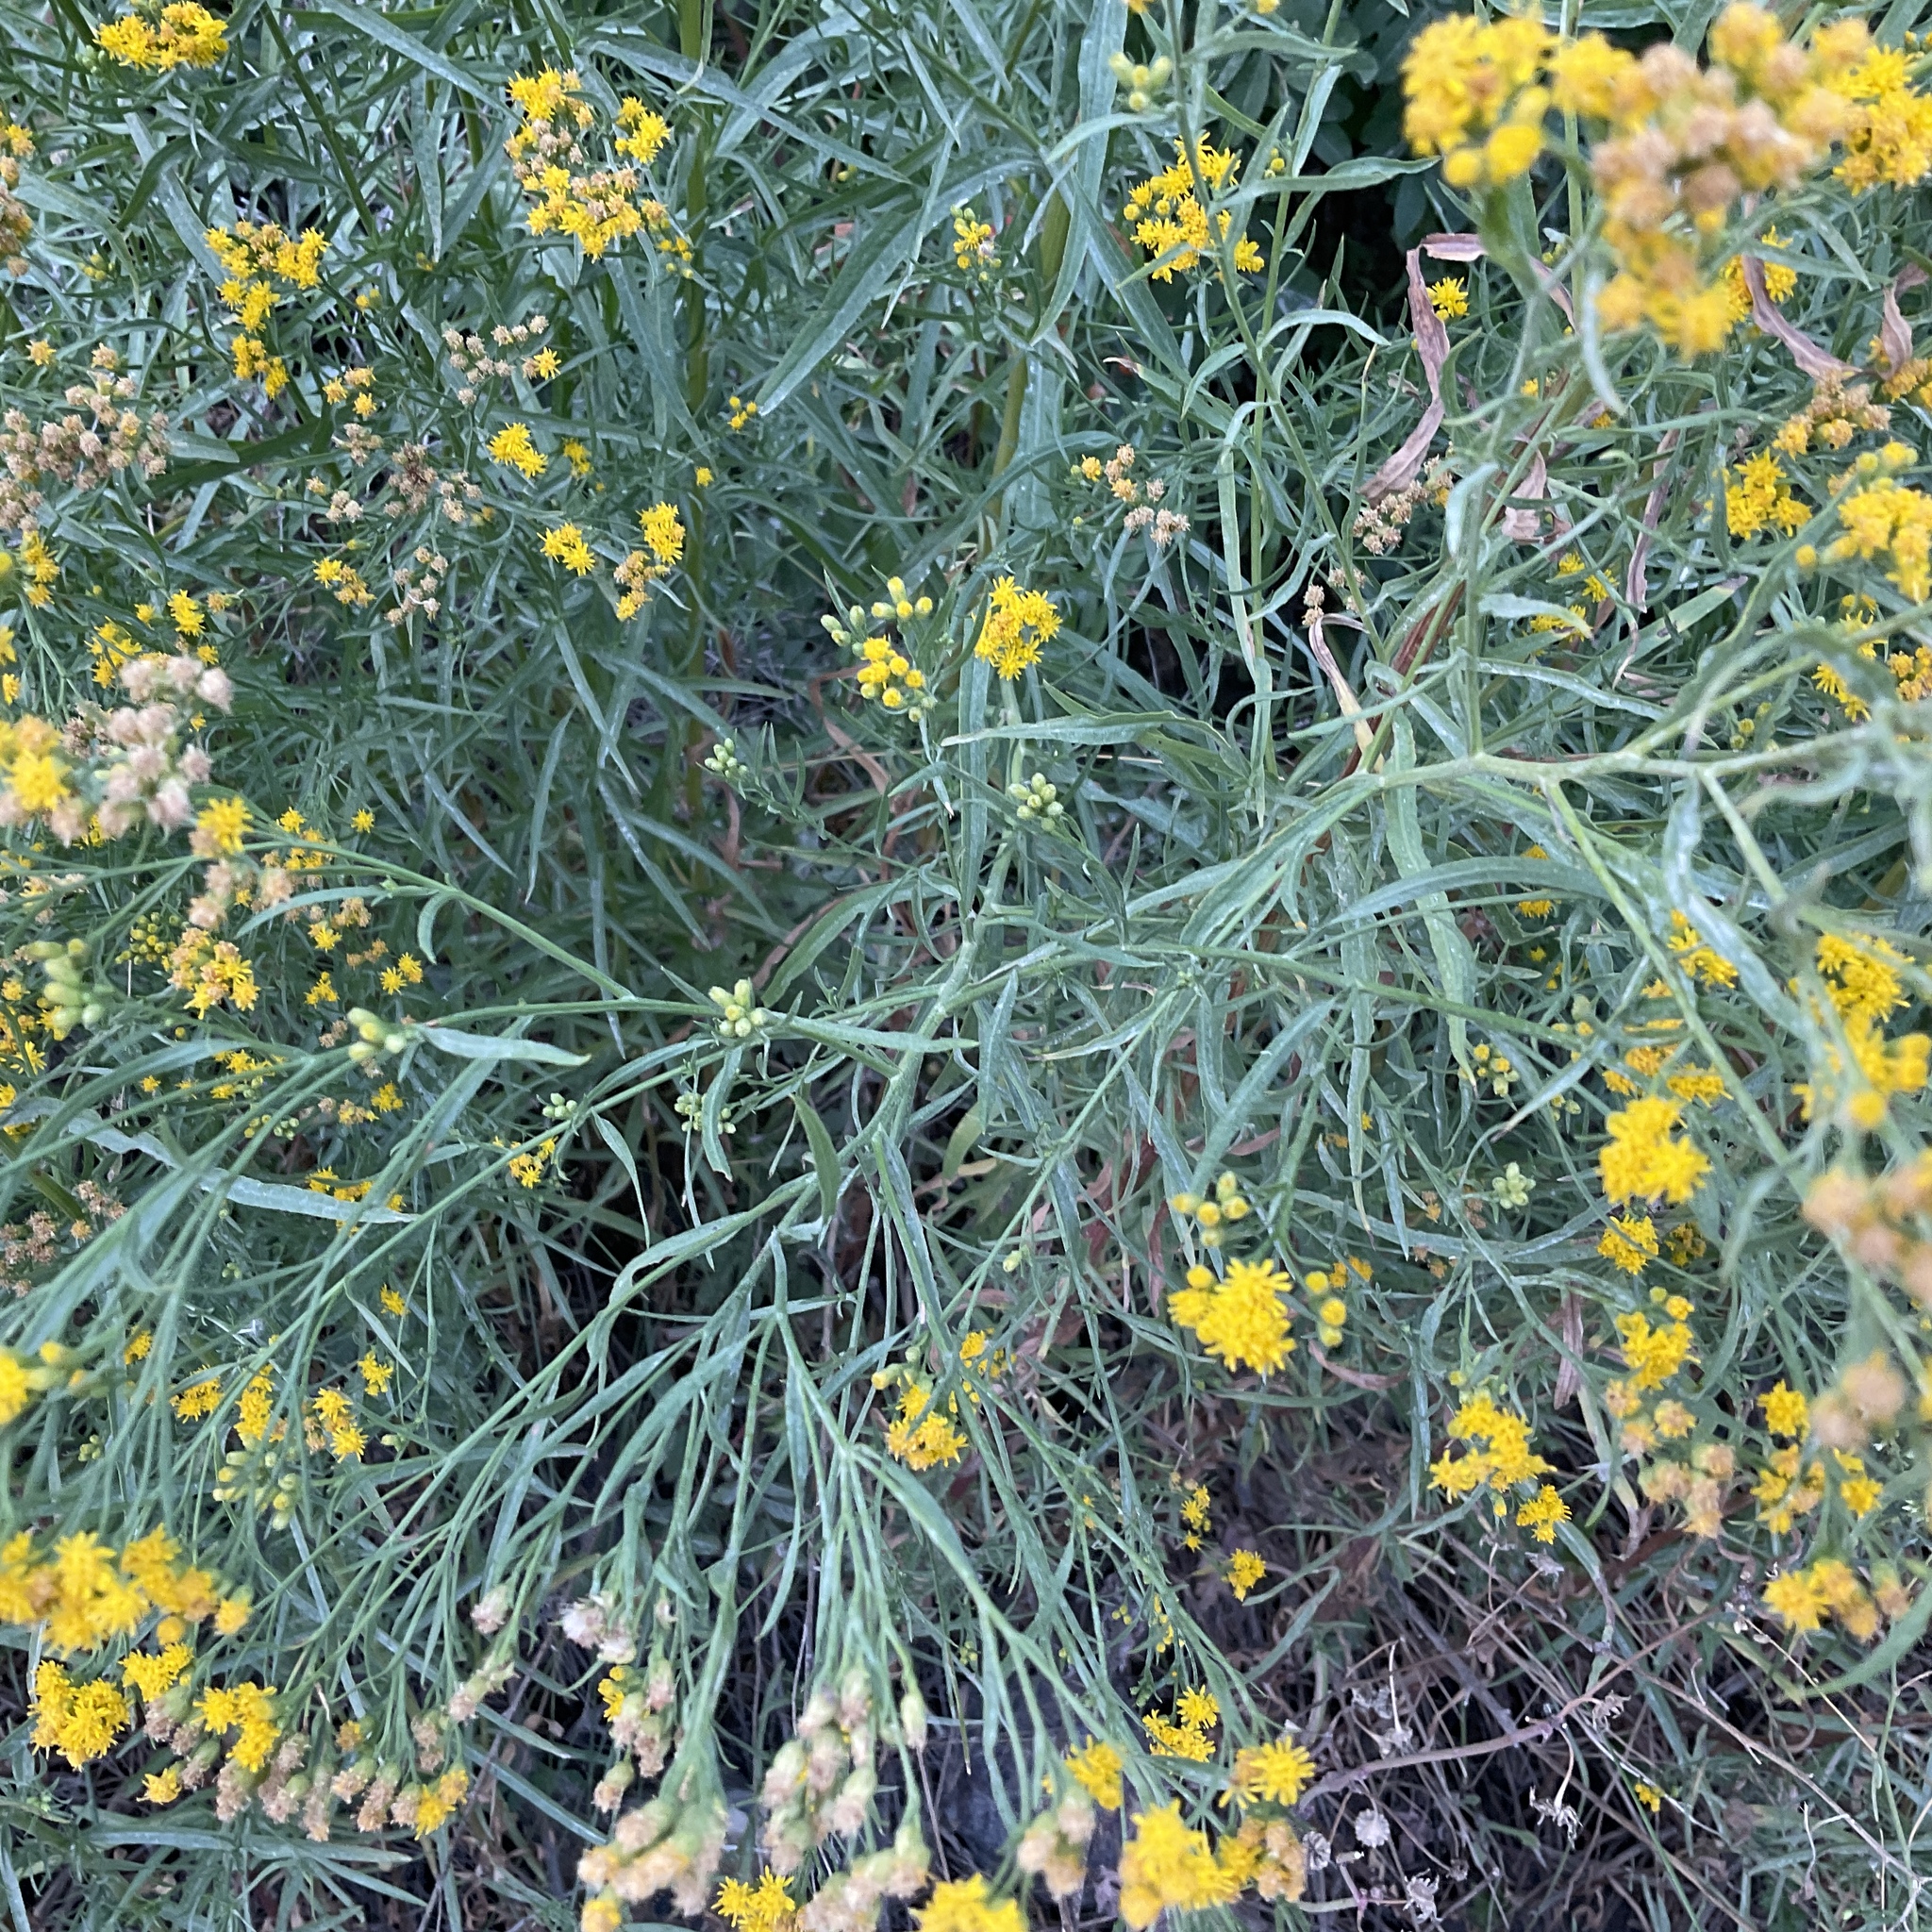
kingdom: Plantae
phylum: Tracheophyta
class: Magnoliopsida
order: Asterales
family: Asteraceae
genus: Euthamia
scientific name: Euthamia occidentalis
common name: Western goldentop
